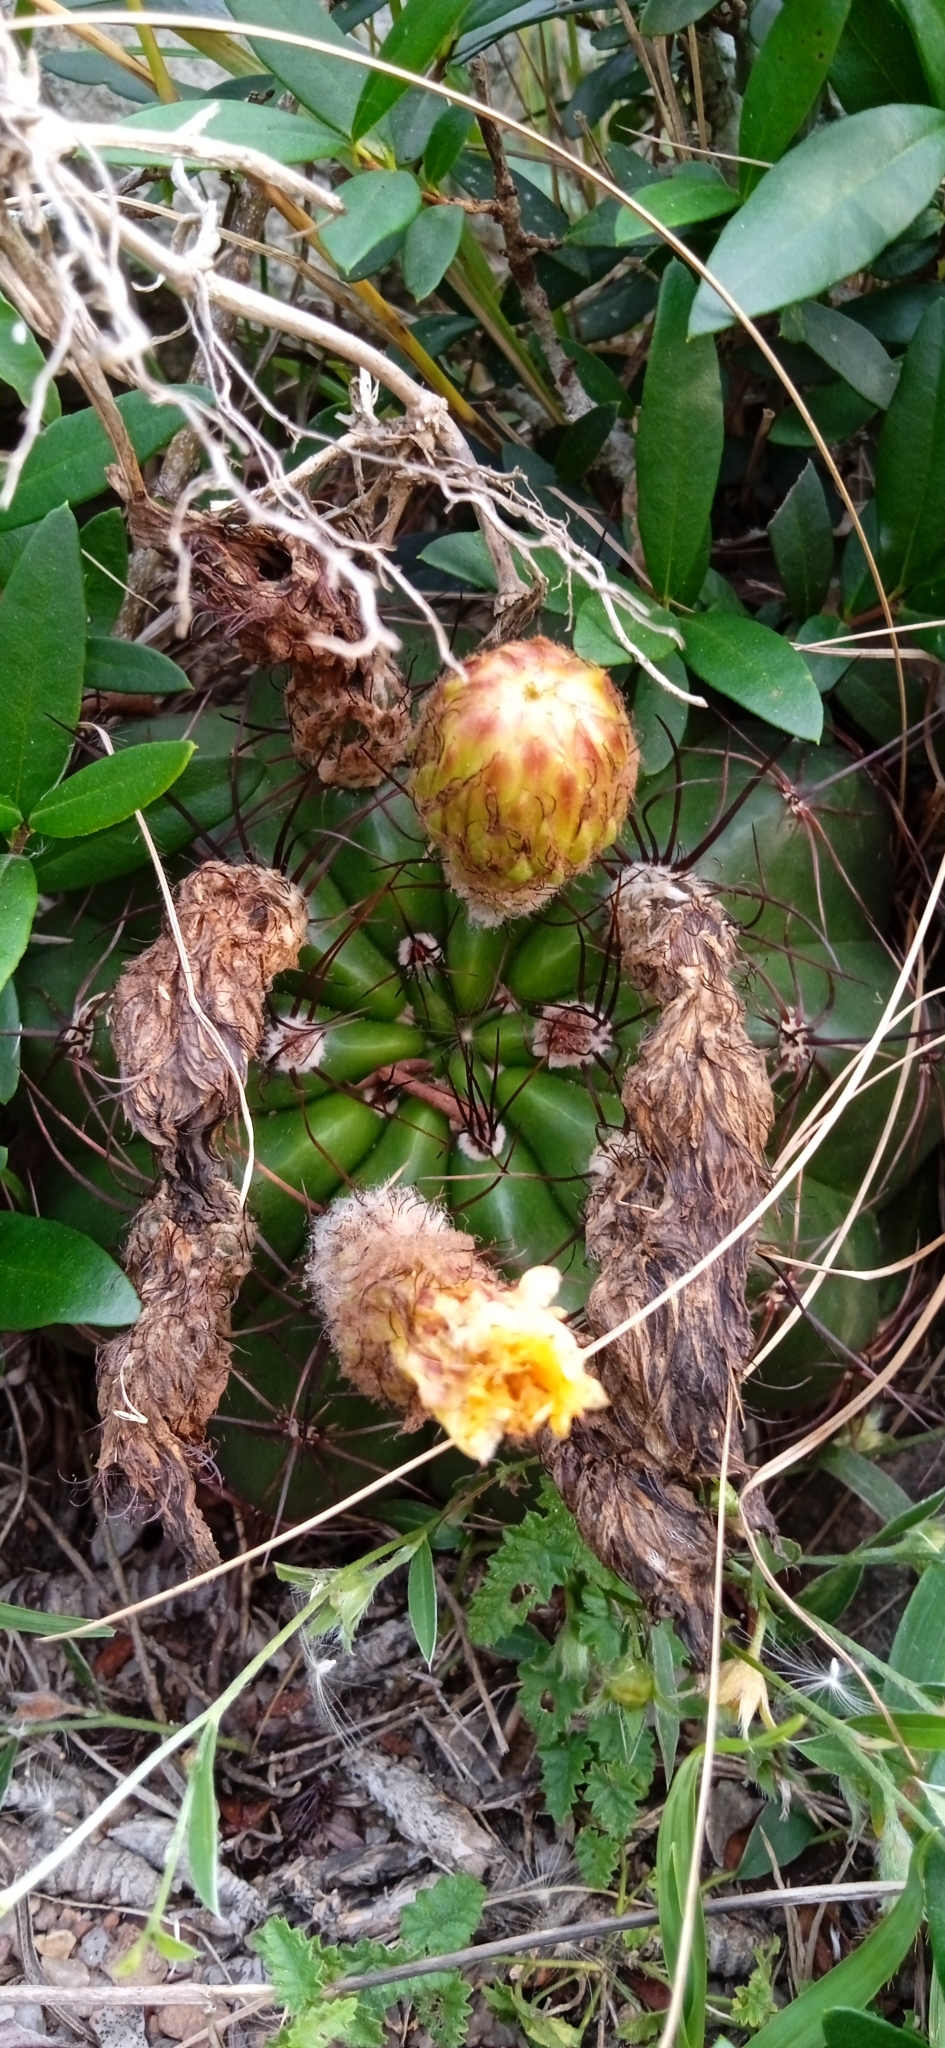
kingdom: Plantae
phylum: Tracheophyta
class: Magnoliopsida
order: Caryophyllales
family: Cactaceae
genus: Parodia
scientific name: Parodia ottonis
